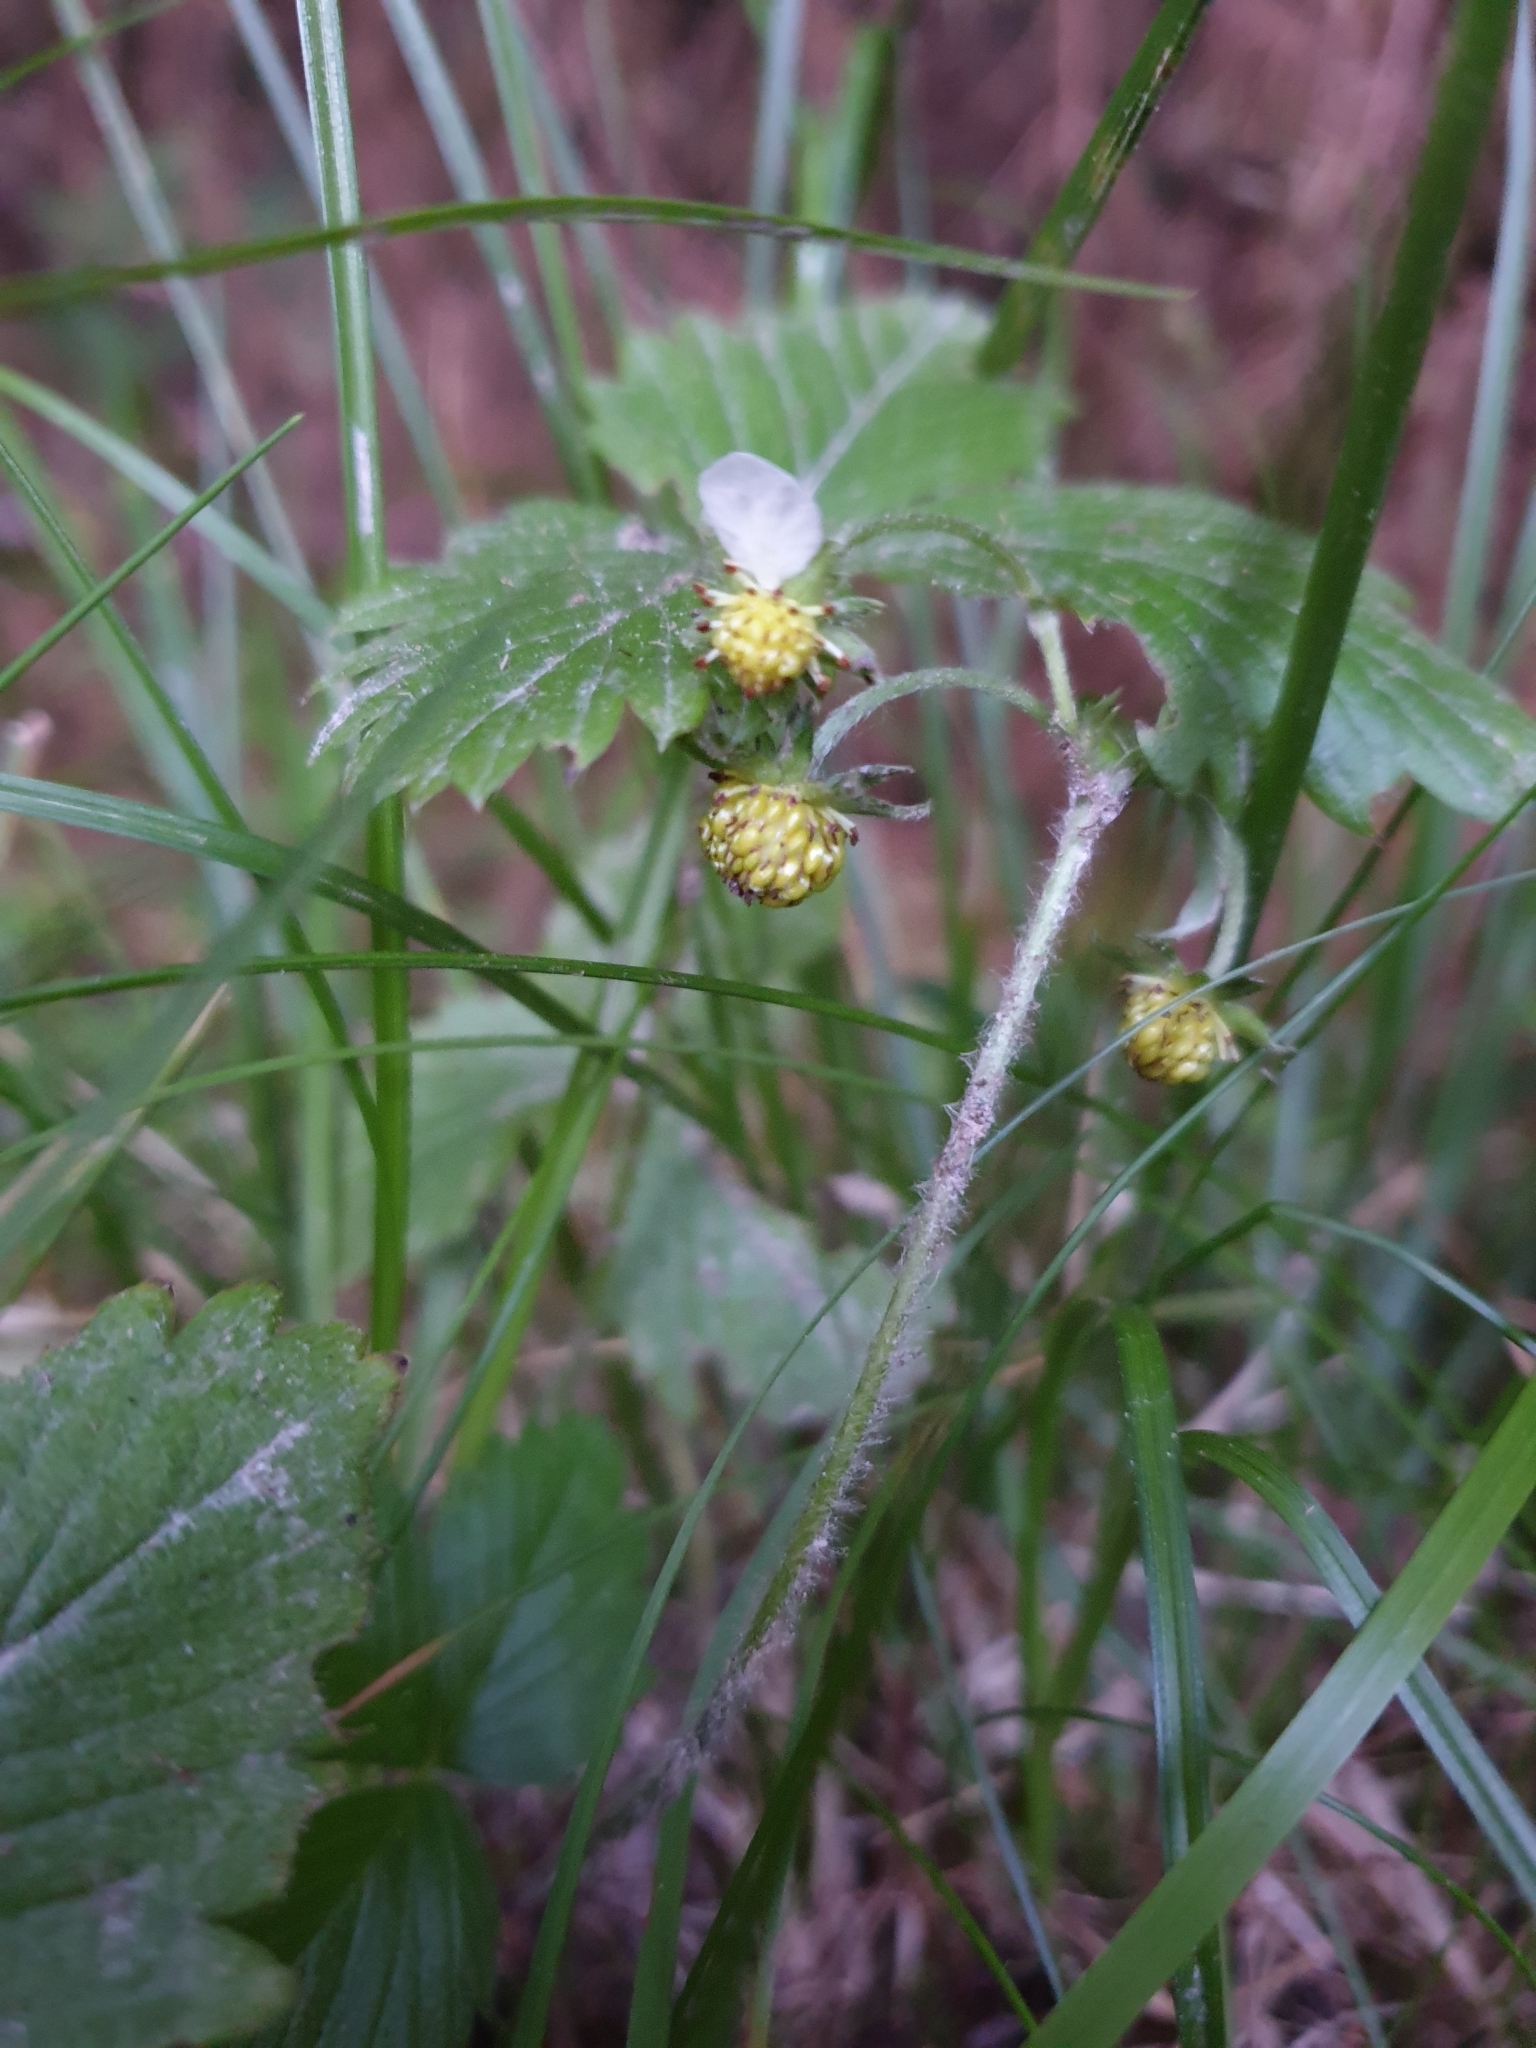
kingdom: Plantae
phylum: Tracheophyta
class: Magnoliopsida
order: Rosales
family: Rosaceae
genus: Fragaria
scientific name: Fragaria vesca
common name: Wild strawberry
